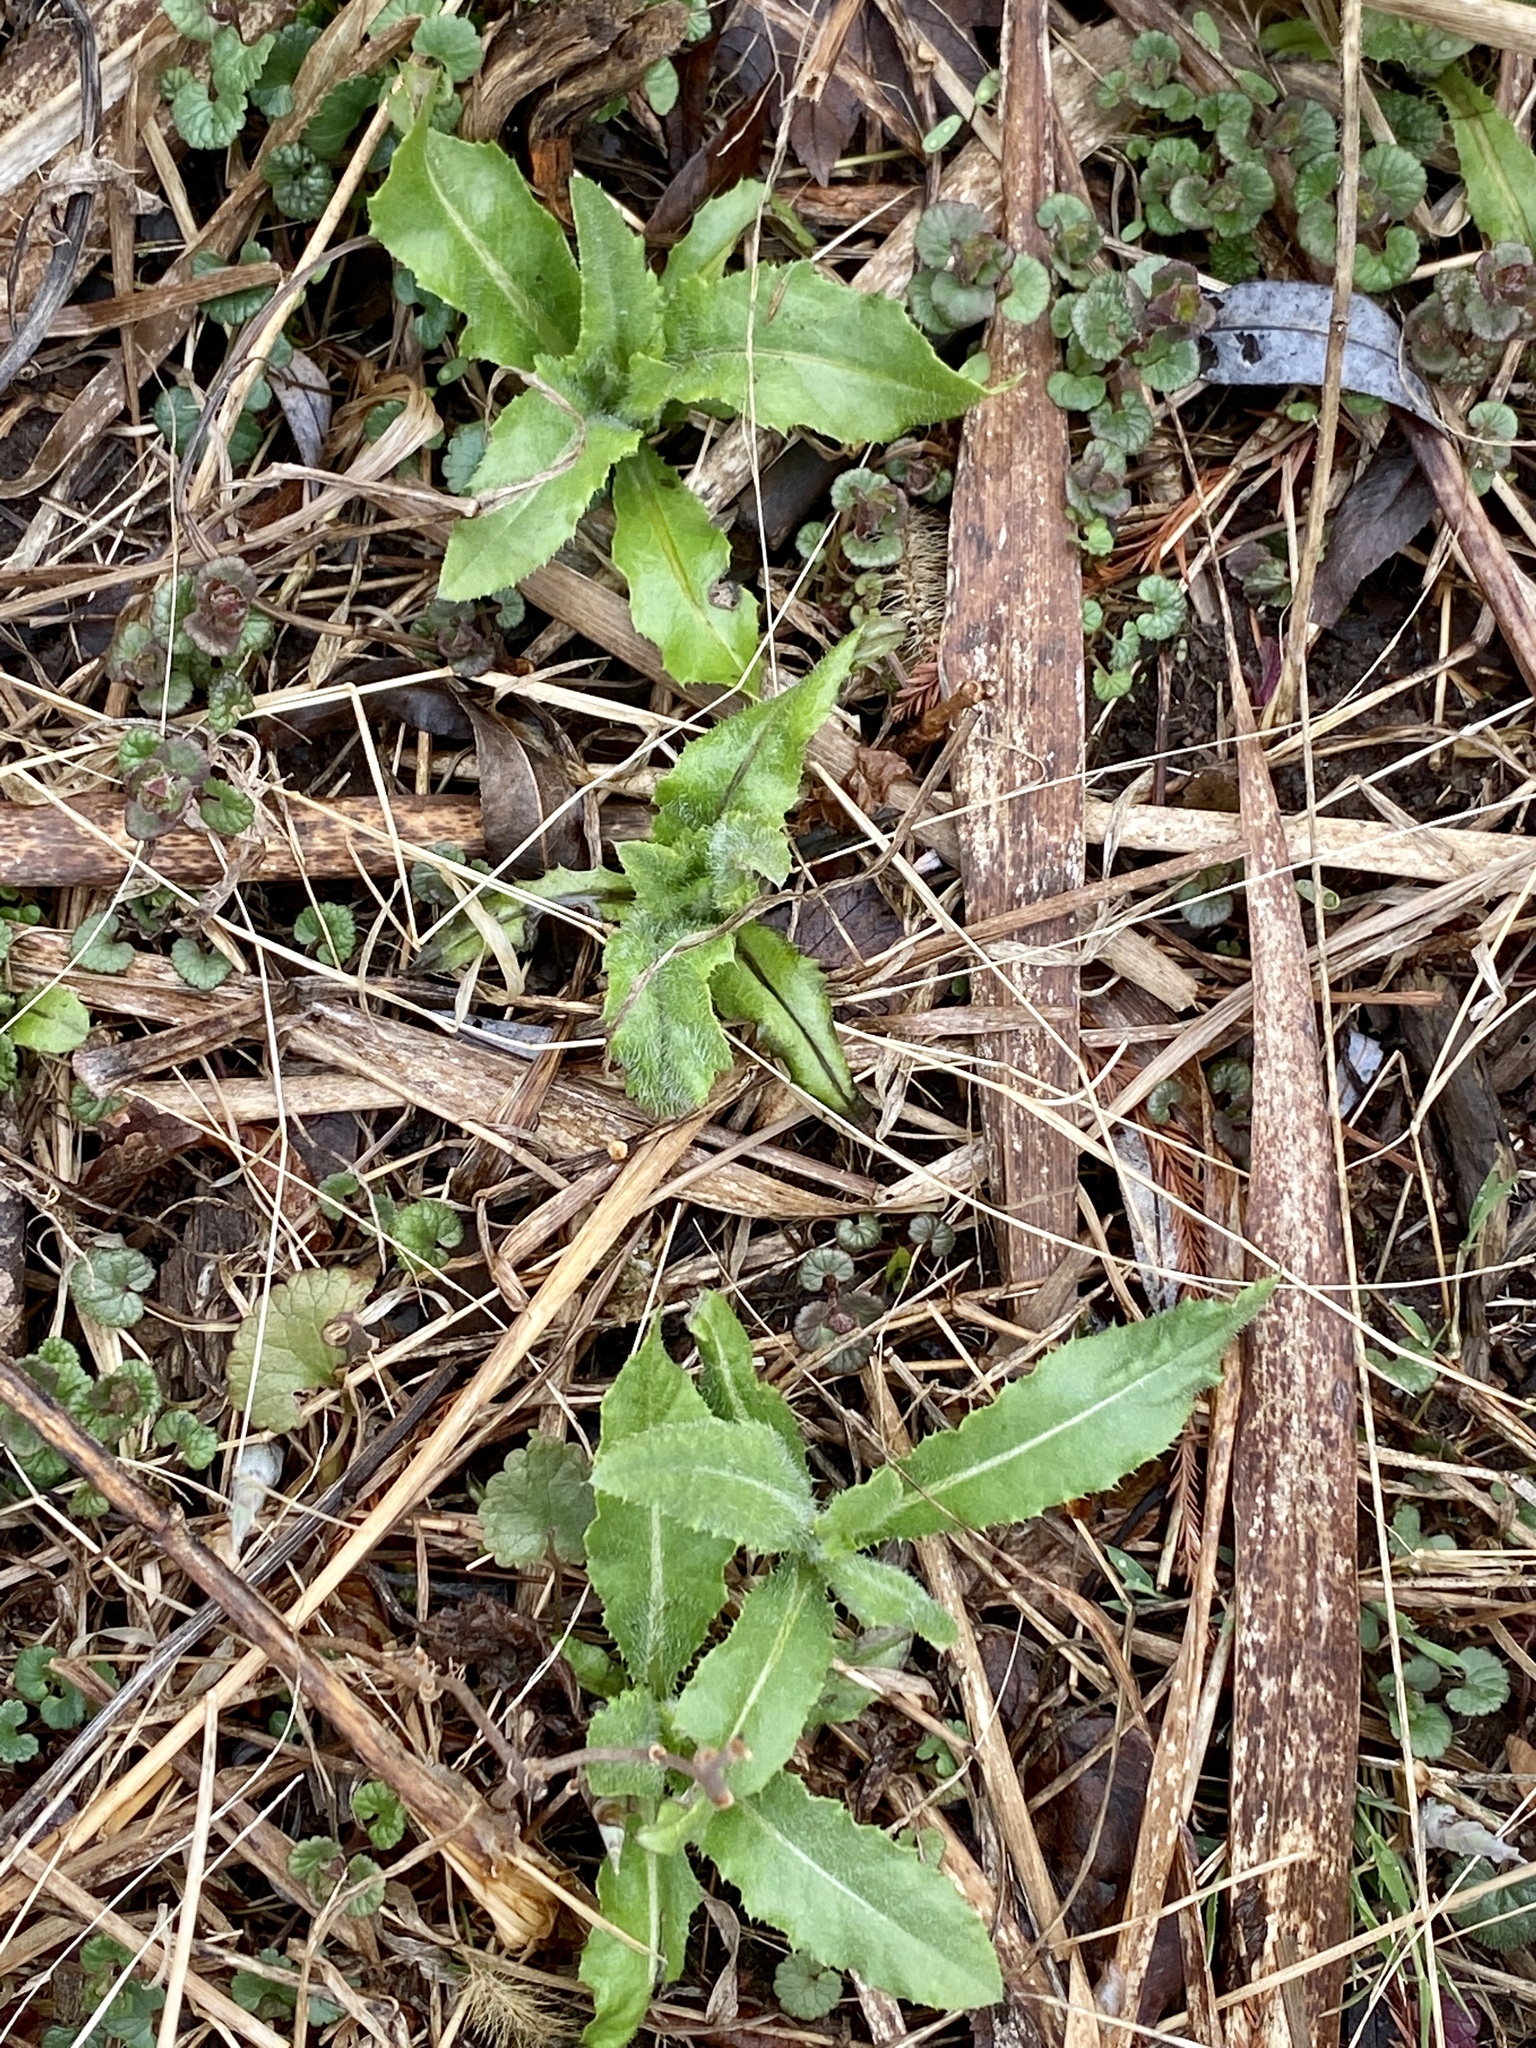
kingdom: Plantae
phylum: Tracheophyta
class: Magnoliopsida
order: Asterales
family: Asteraceae
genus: Cirsium
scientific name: Cirsium arvense
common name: Creeping thistle
